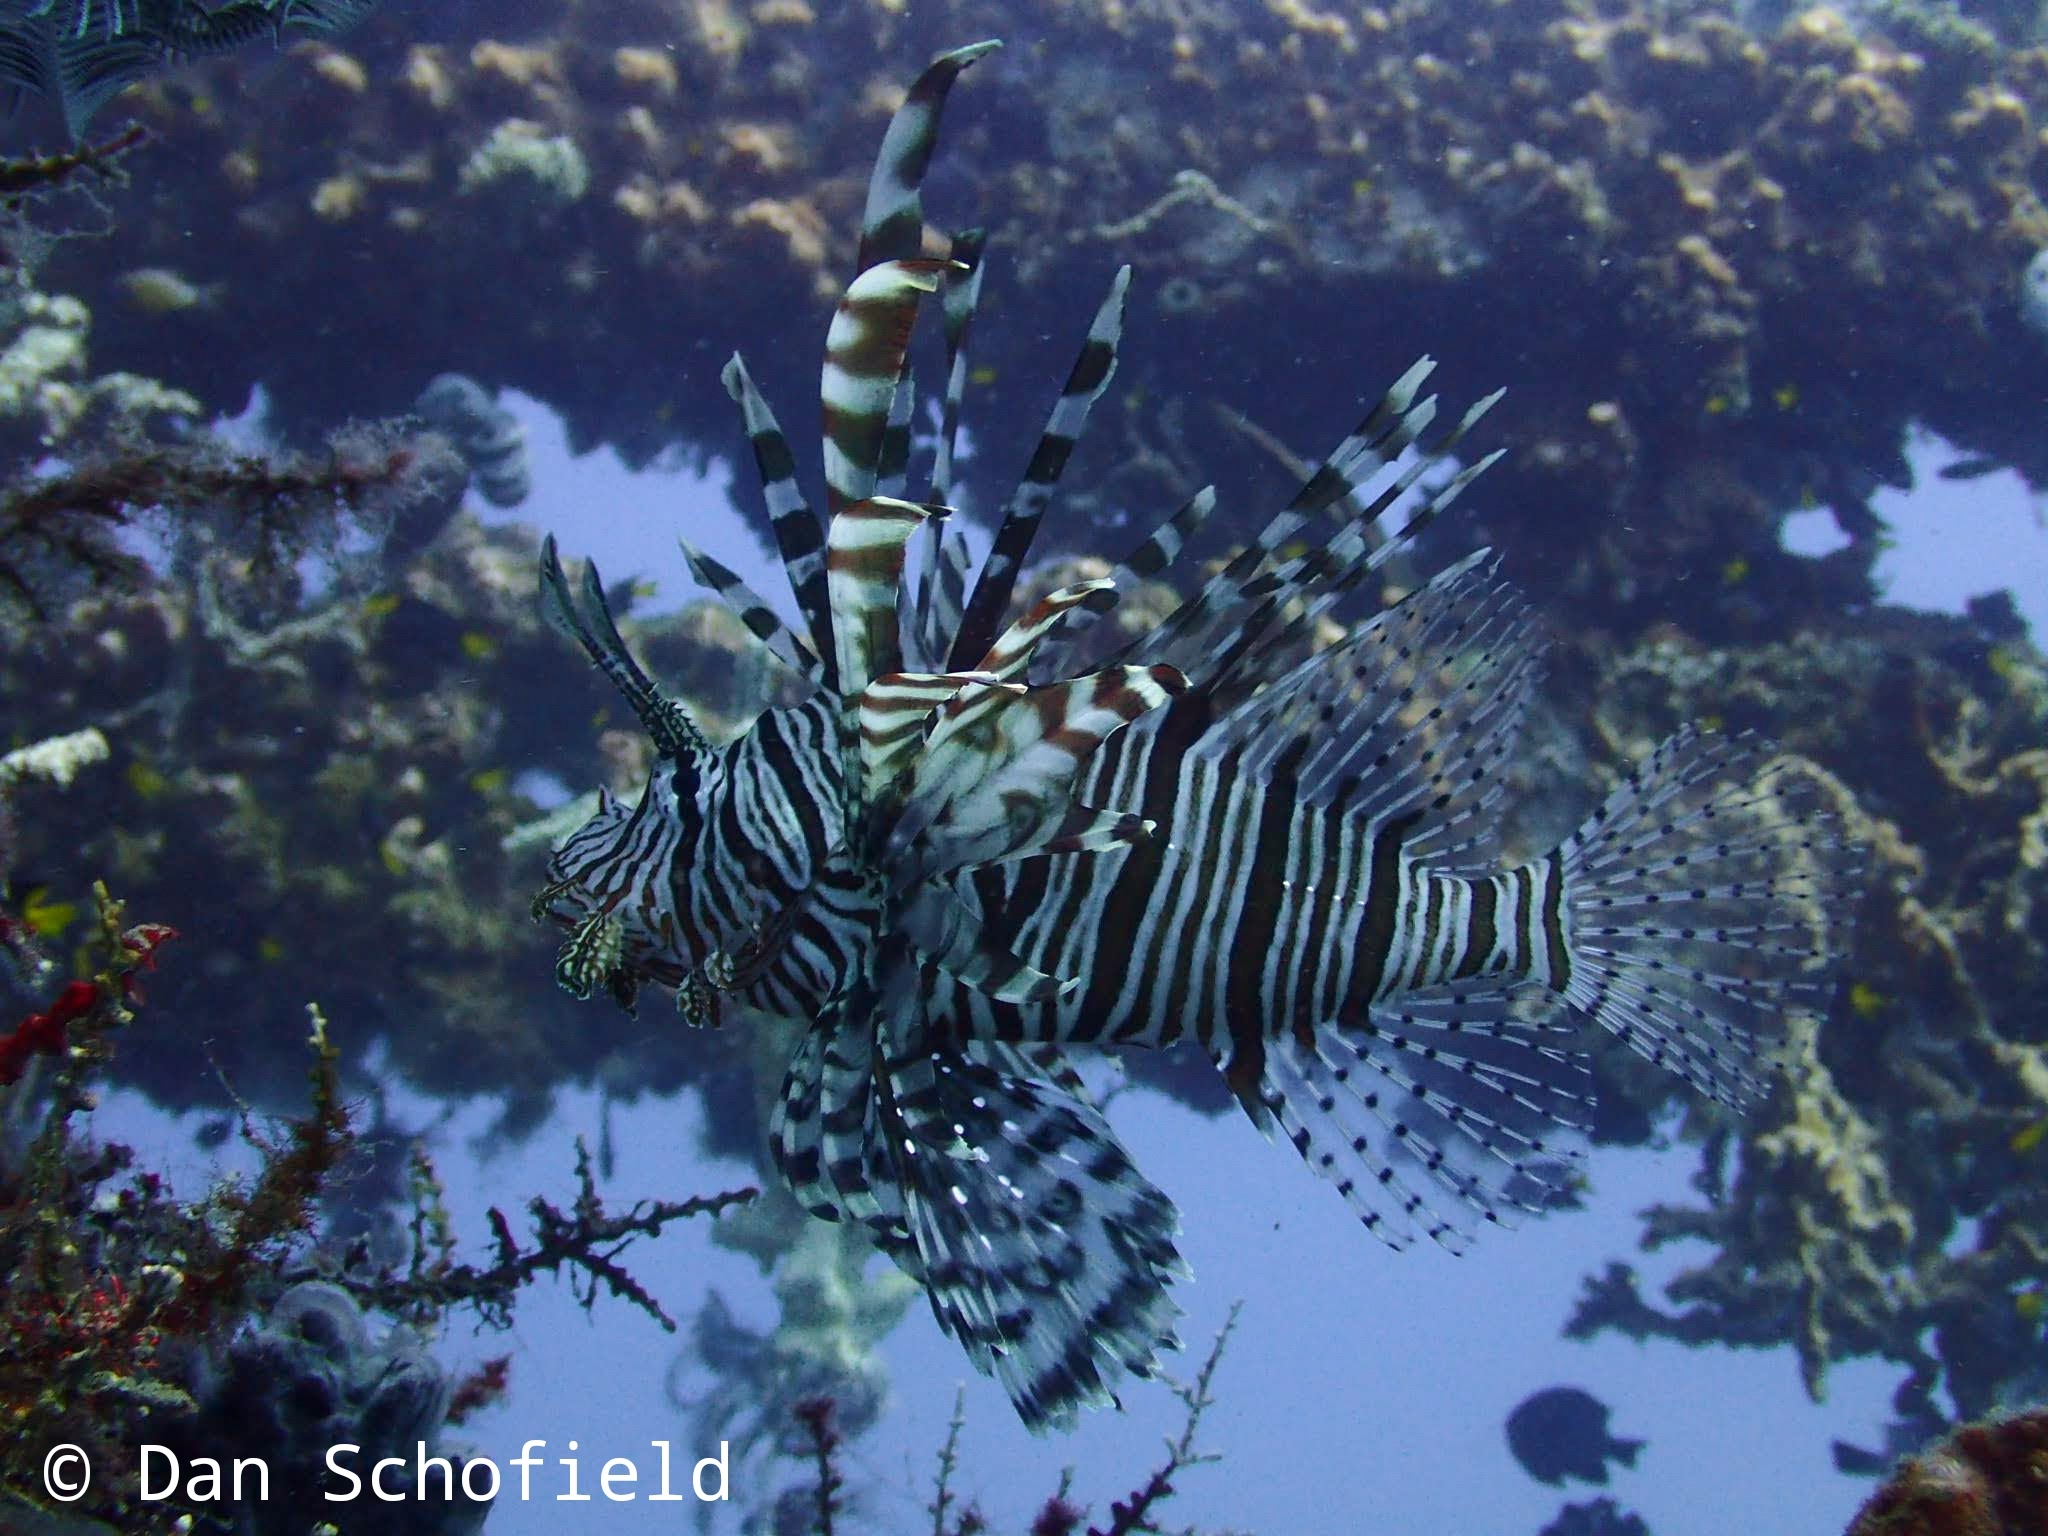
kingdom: Animalia
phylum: Chordata
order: Scorpaeniformes
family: Scorpaenidae
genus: Pterois
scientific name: Pterois volitans
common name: Lionfish
